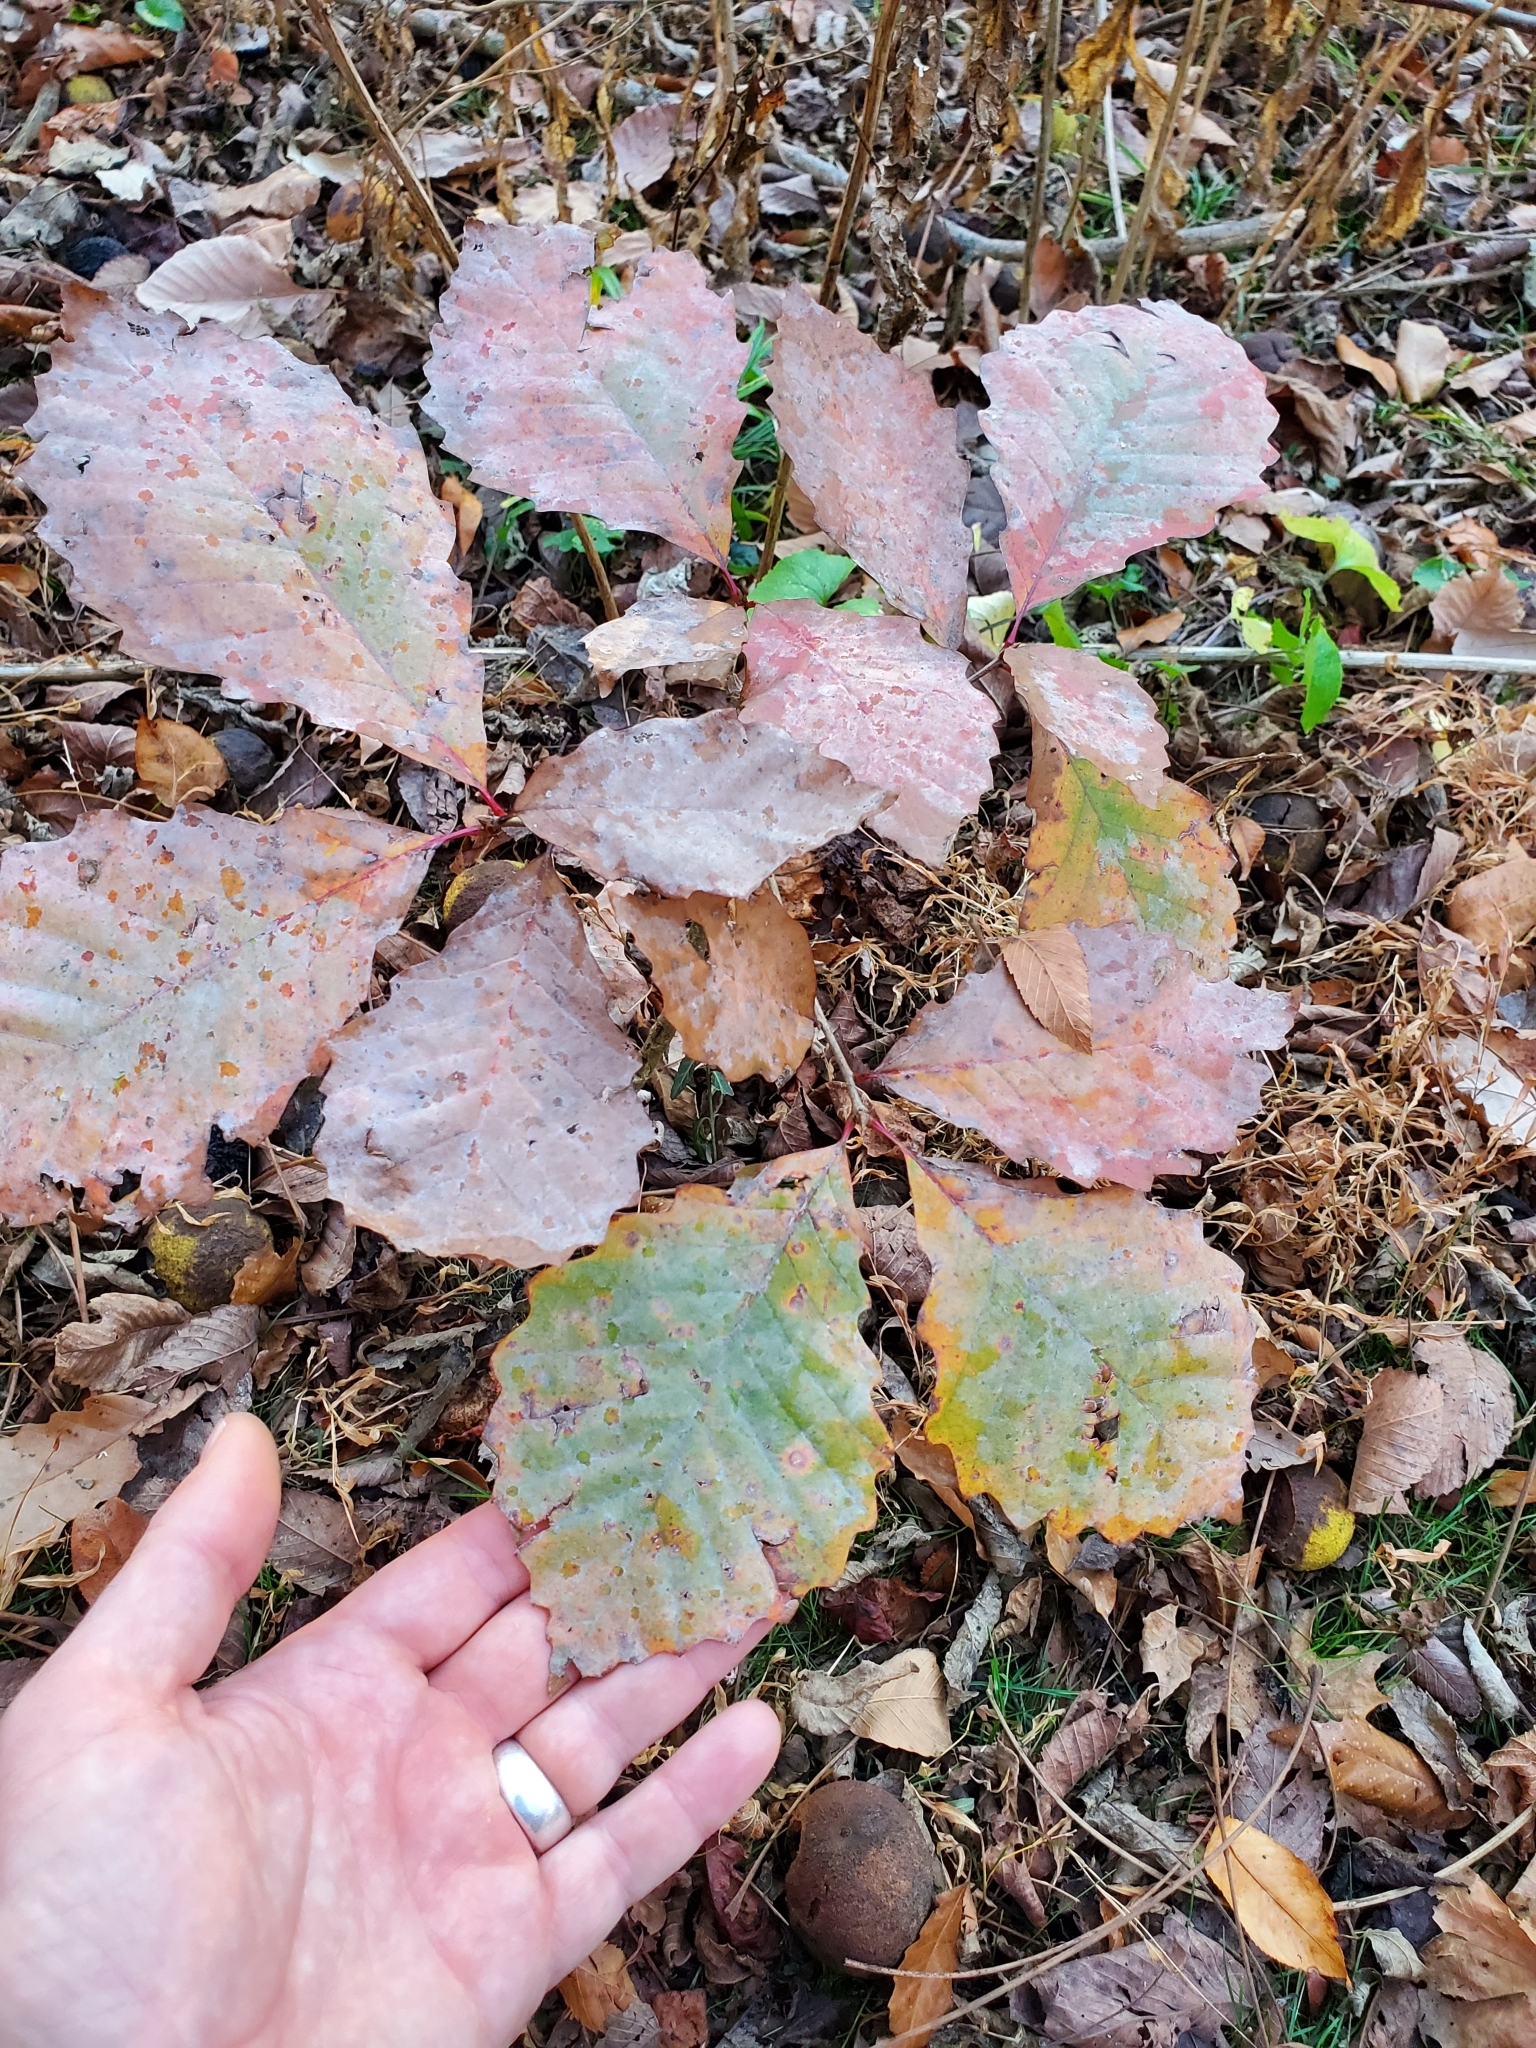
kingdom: Plantae
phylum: Tracheophyta
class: Magnoliopsida
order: Fagales
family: Fagaceae
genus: Quercus
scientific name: Quercus montana
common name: Chestnut oak
